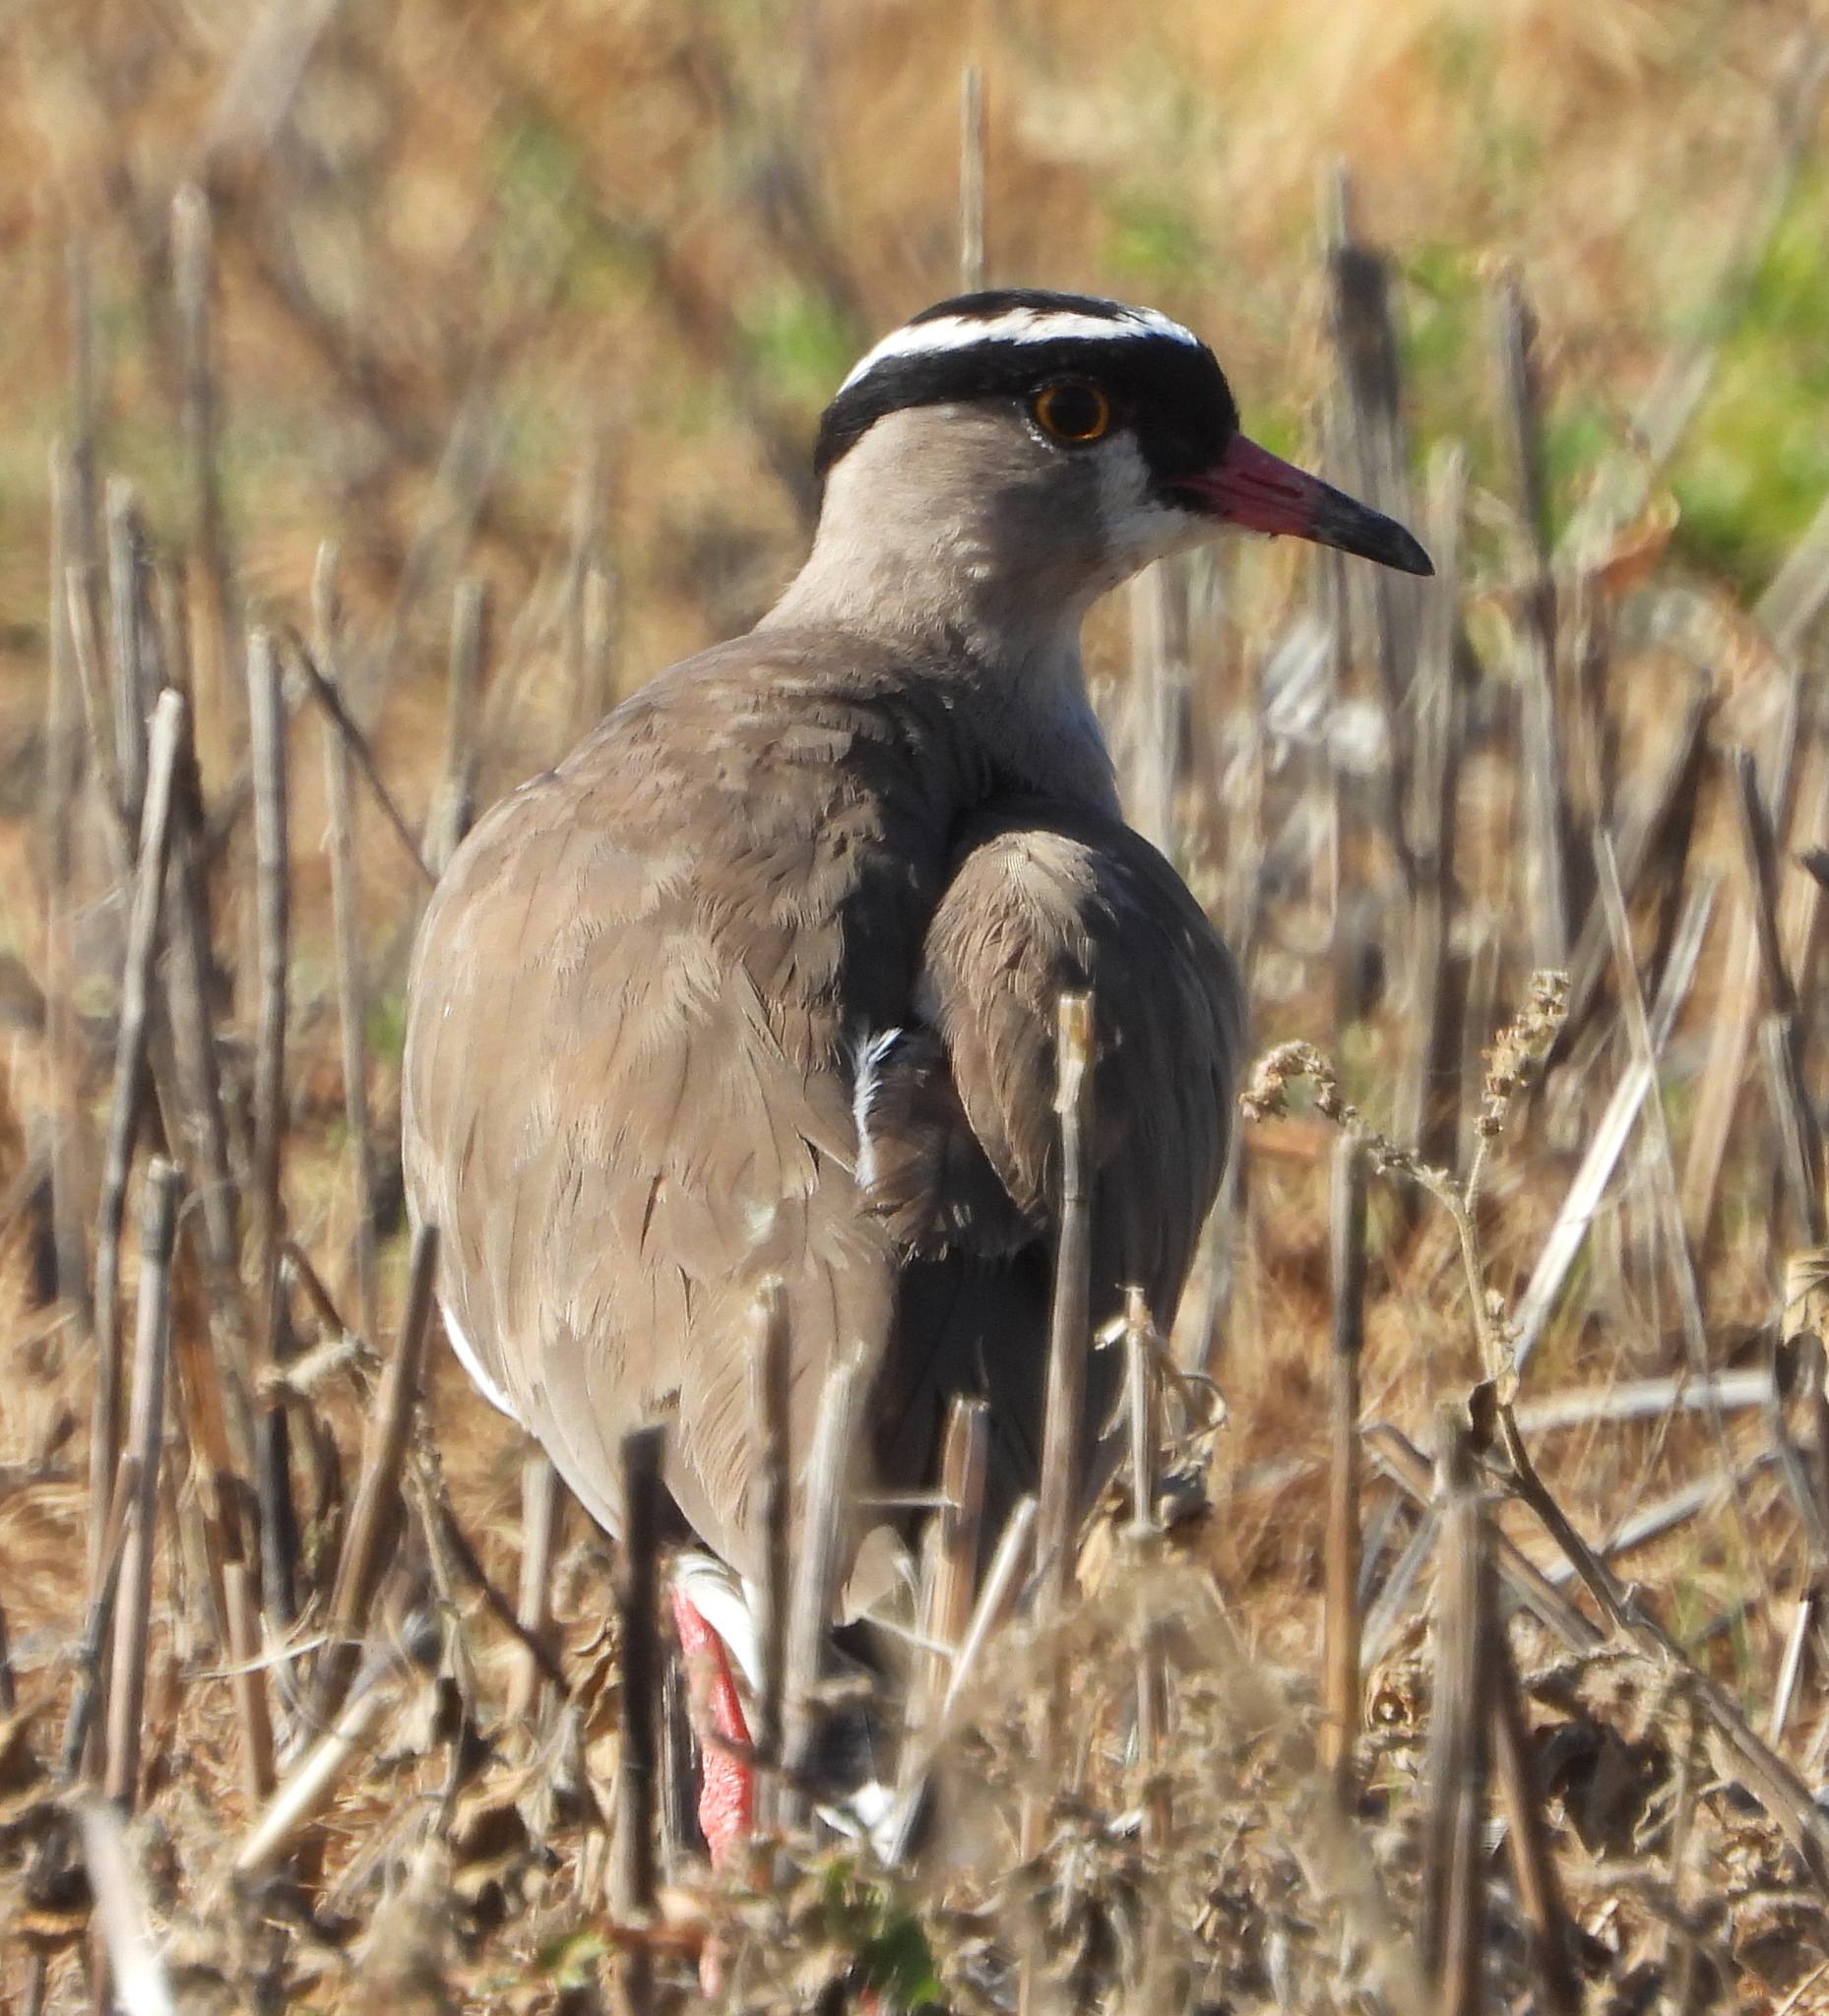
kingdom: Animalia
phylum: Chordata
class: Aves
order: Charadriiformes
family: Charadriidae
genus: Vanellus
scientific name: Vanellus coronatus
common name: Crowned lapwing
